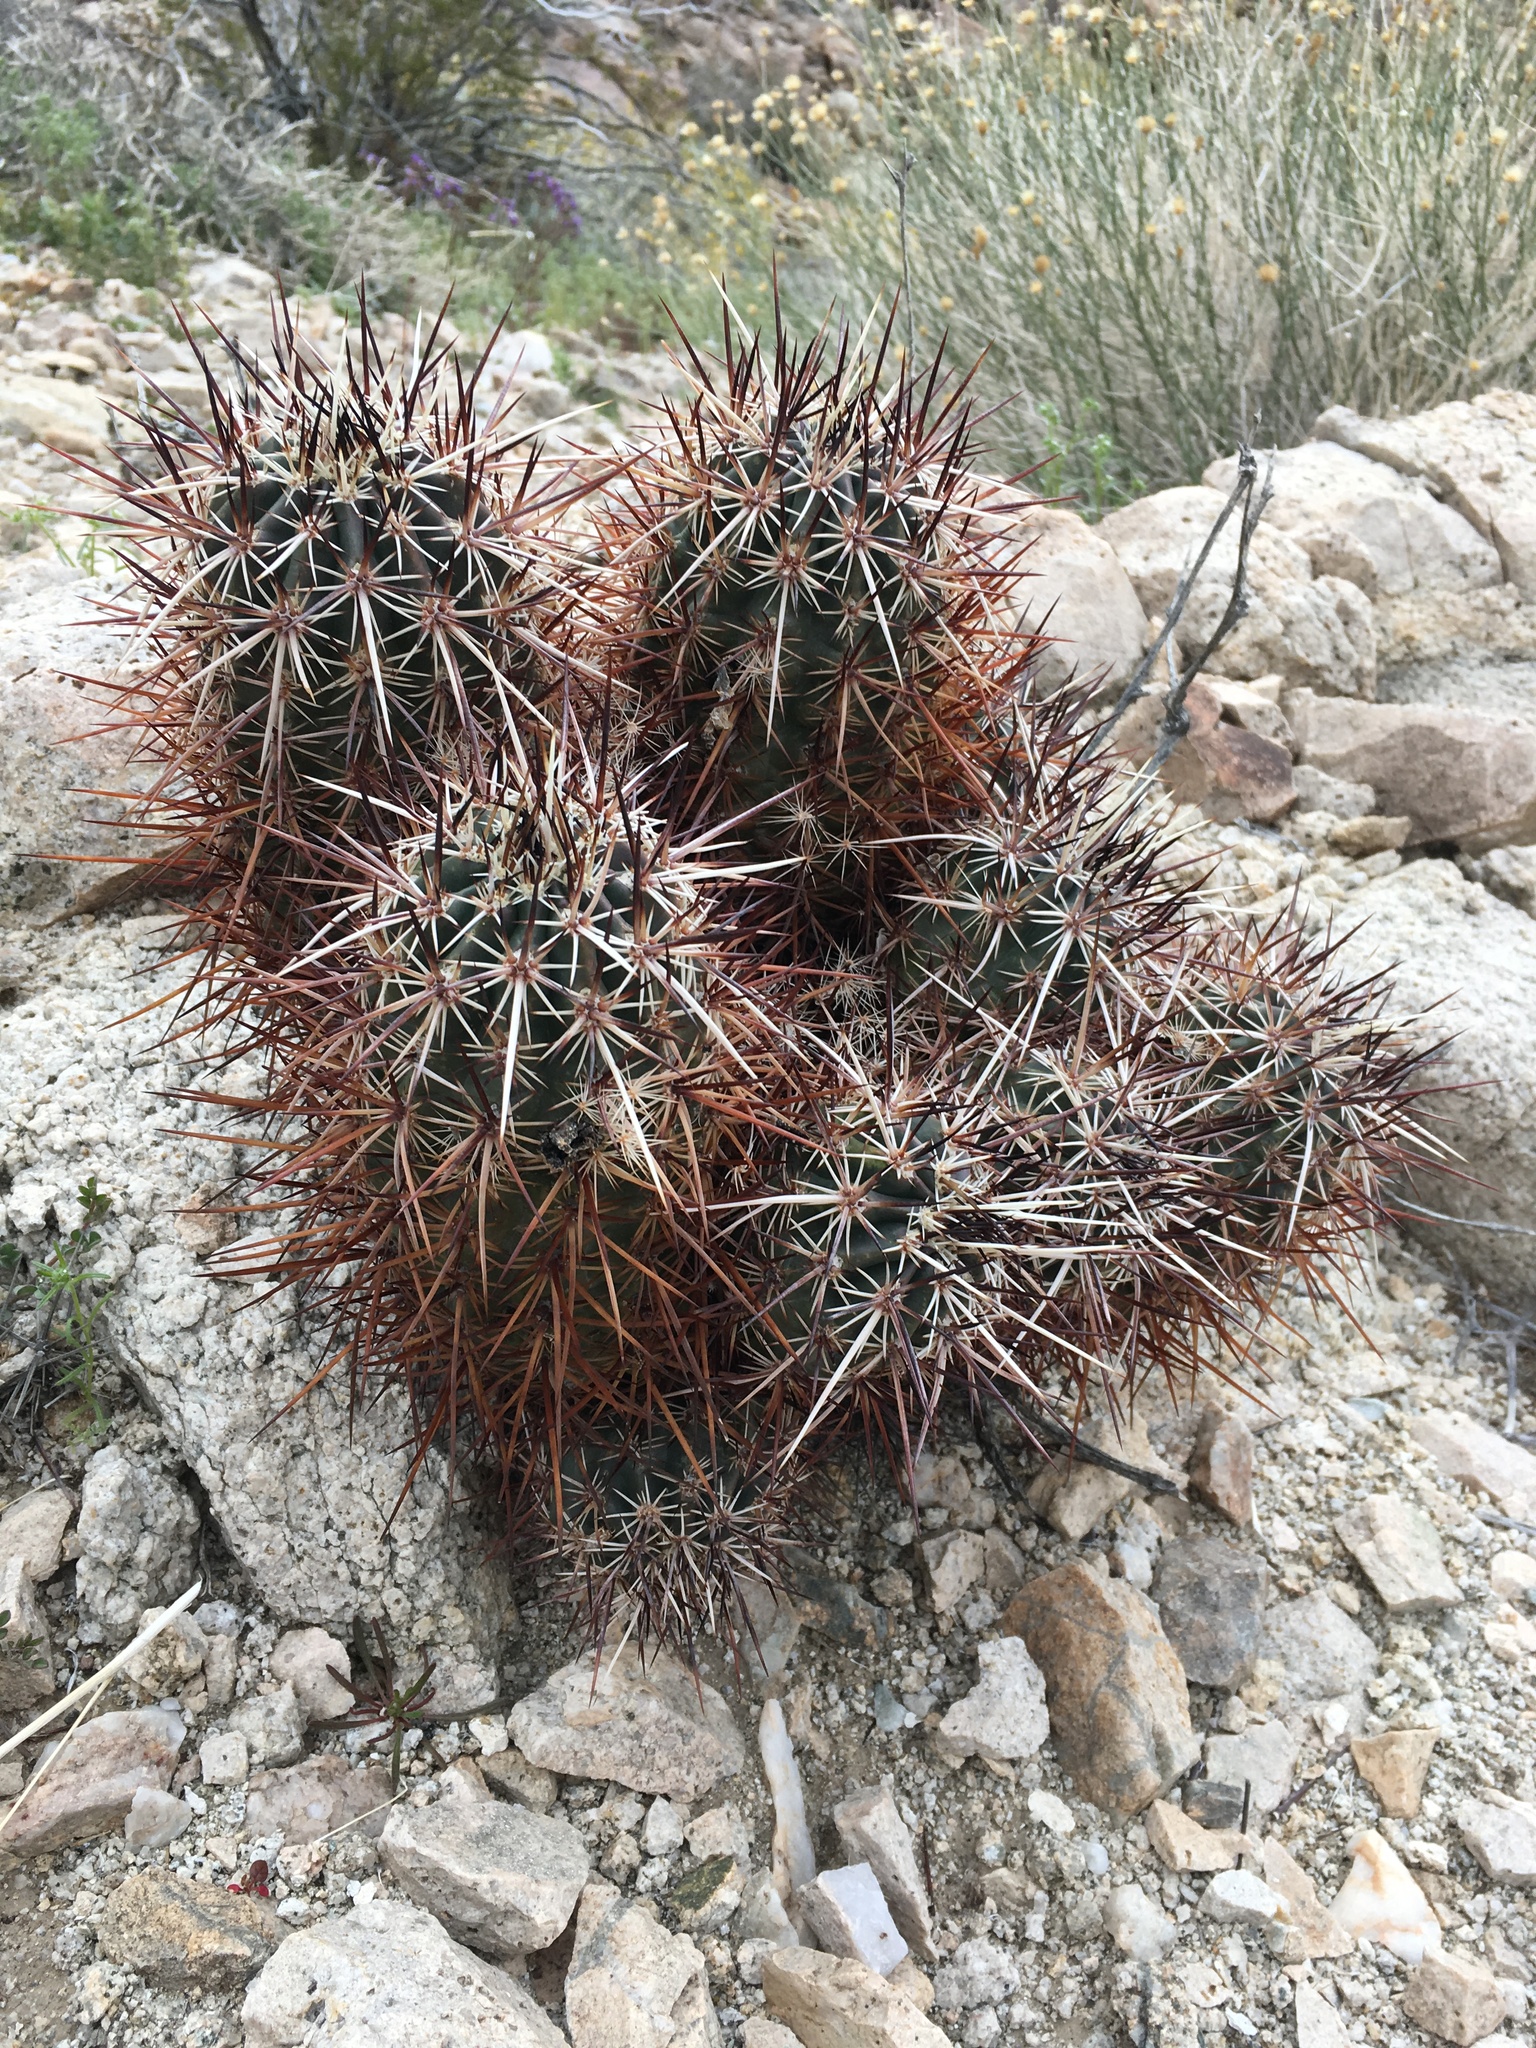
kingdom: Plantae
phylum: Tracheophyta
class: Magnoliopsida
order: Caryophyllales
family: Cactaceae
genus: Echinocereus
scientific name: Echinocereus engelmannii
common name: Engelmann's hedgehog cactus
